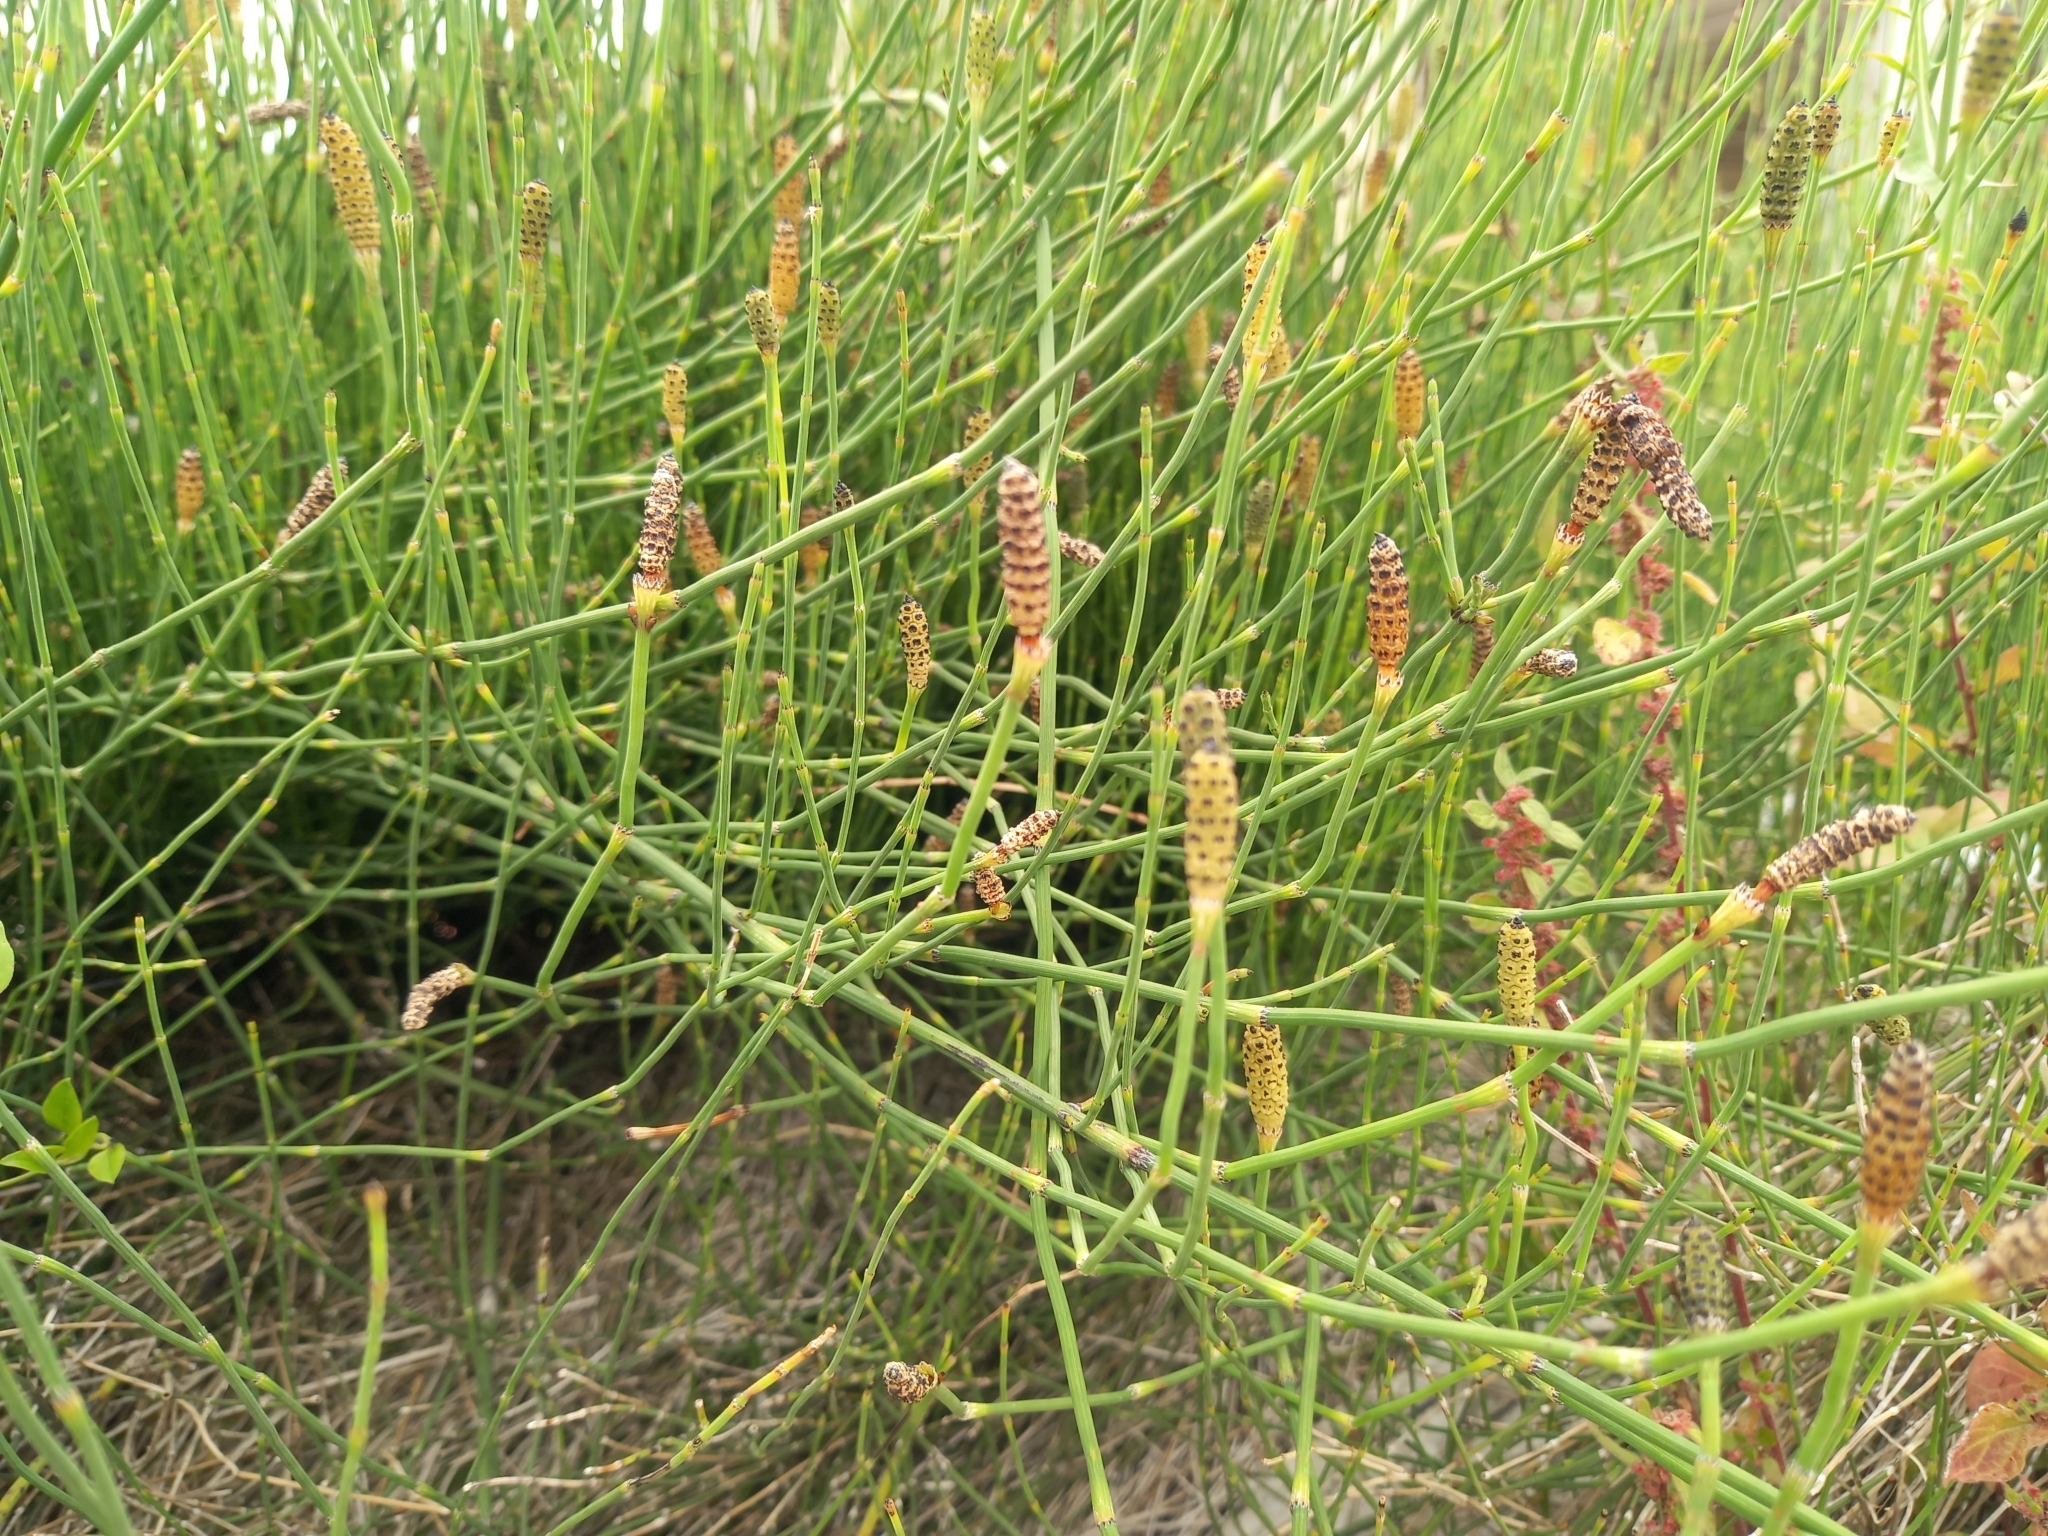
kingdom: Plantae
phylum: Tracheophyta
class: Polypodiopsida
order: Equisetales
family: Equisetaceae
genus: Equisetum
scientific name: Equisetum ramosissimum
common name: Branched horsetail
